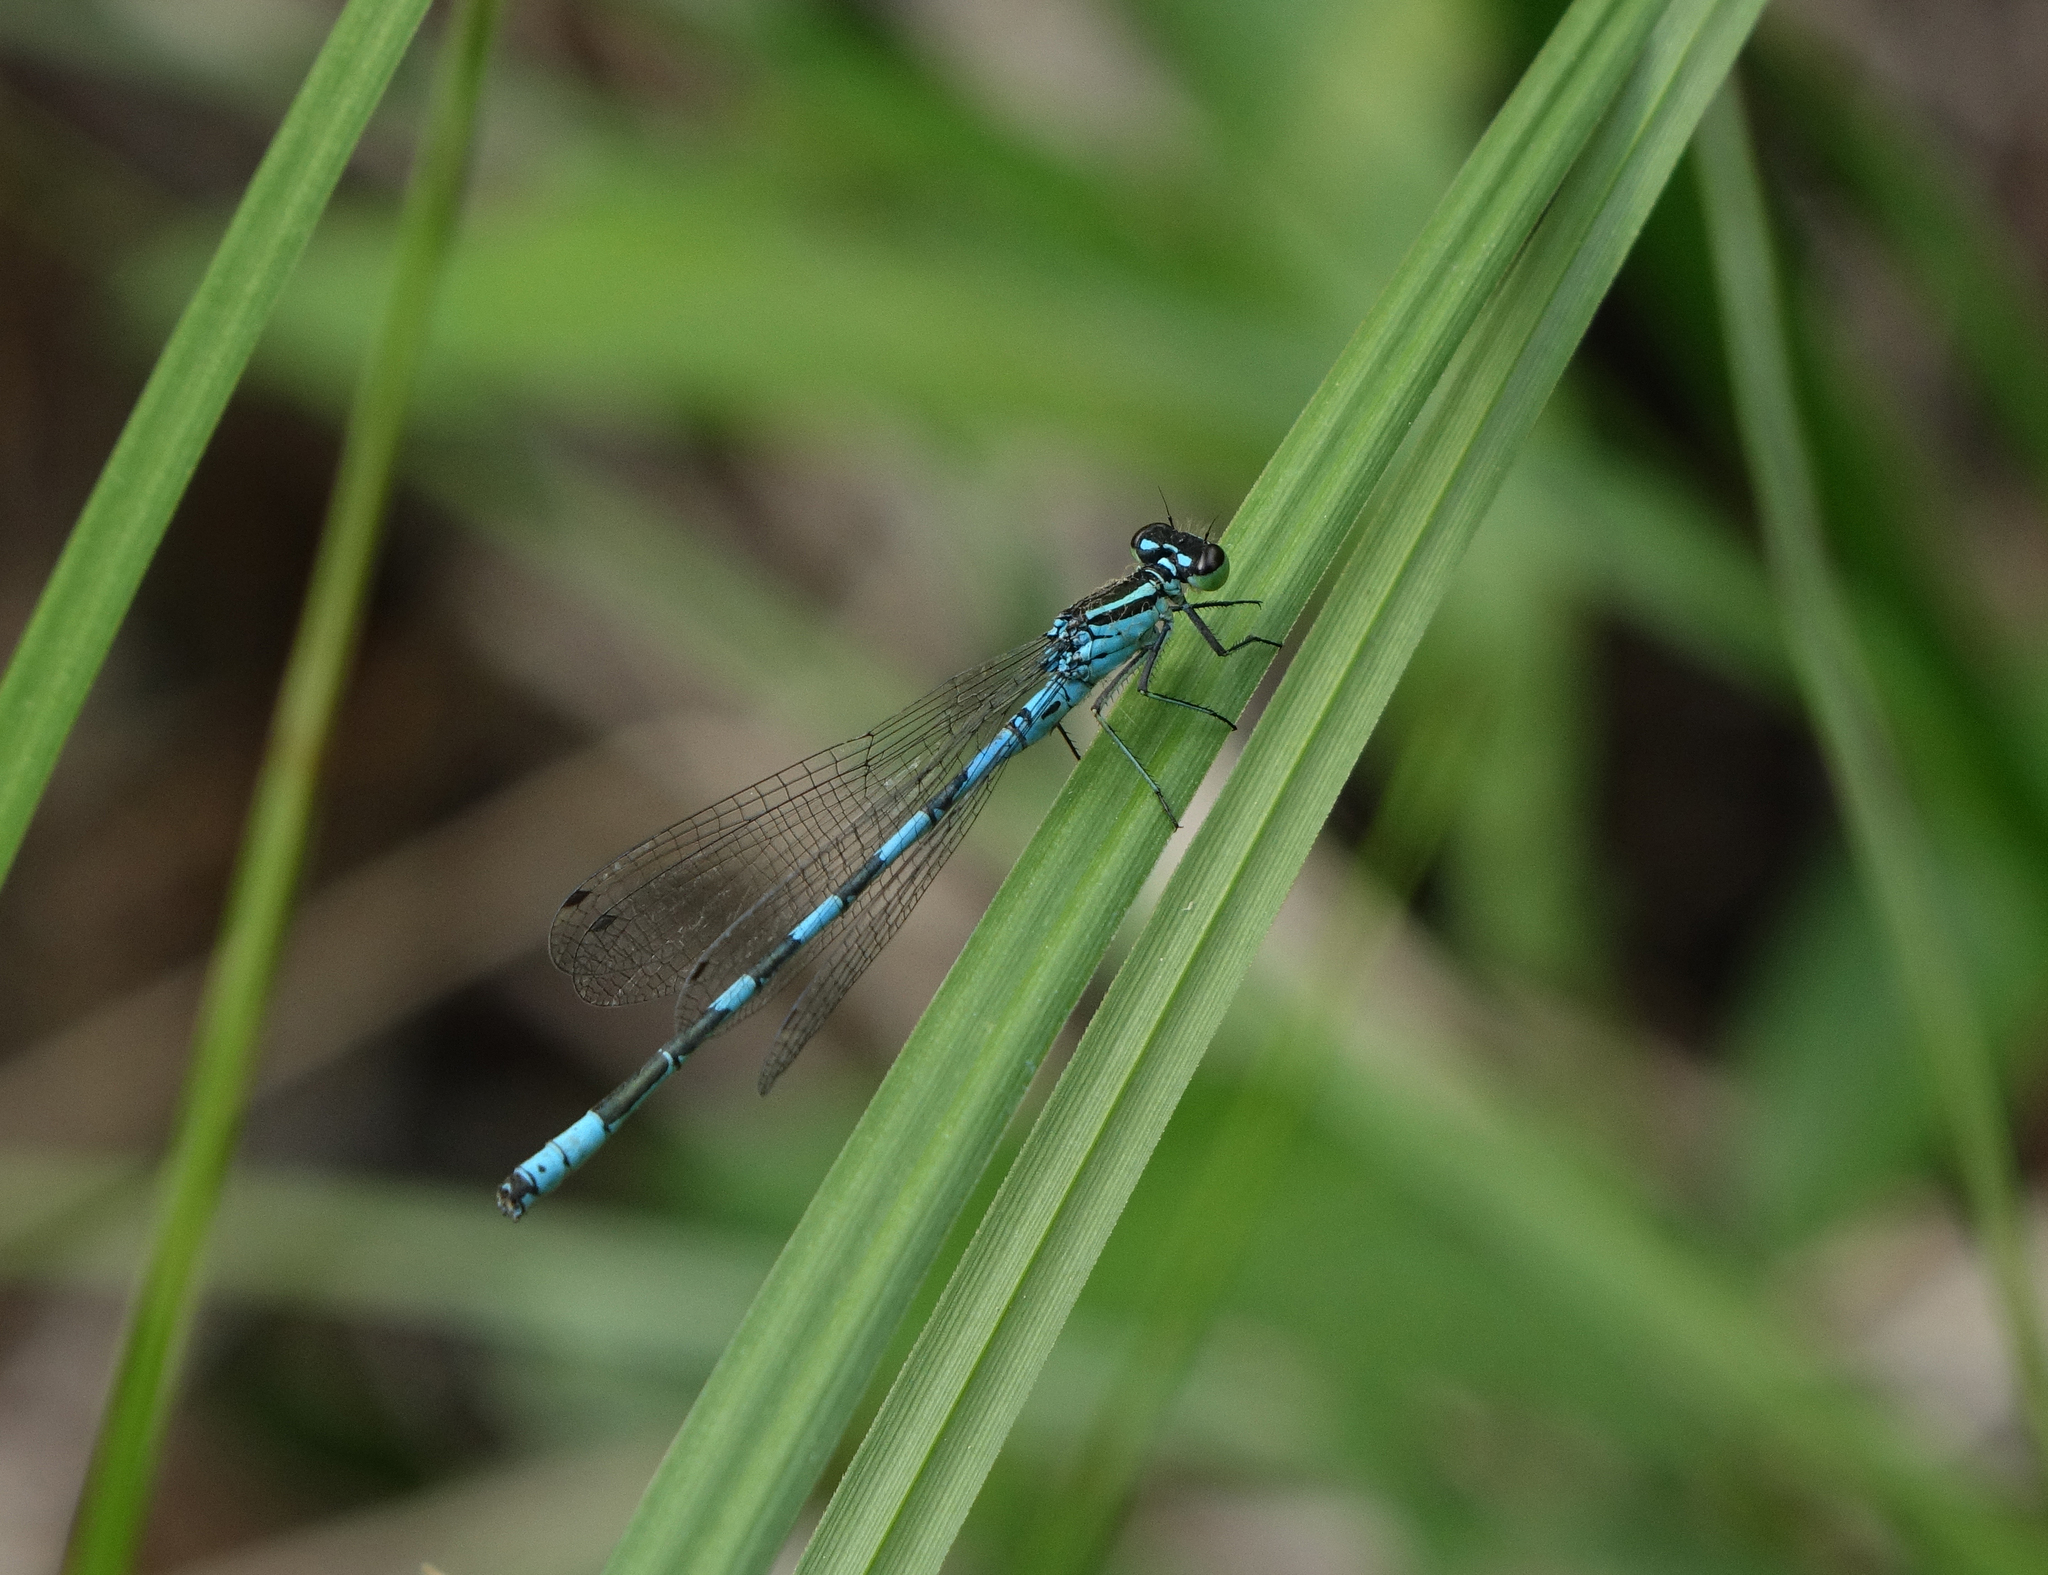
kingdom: Animalia
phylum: Arthropoda
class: Insecta
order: Odonata
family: Coenagrionidae
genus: Coenagrion
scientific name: Coenagrion hastulatum
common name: Spearhead bluet
